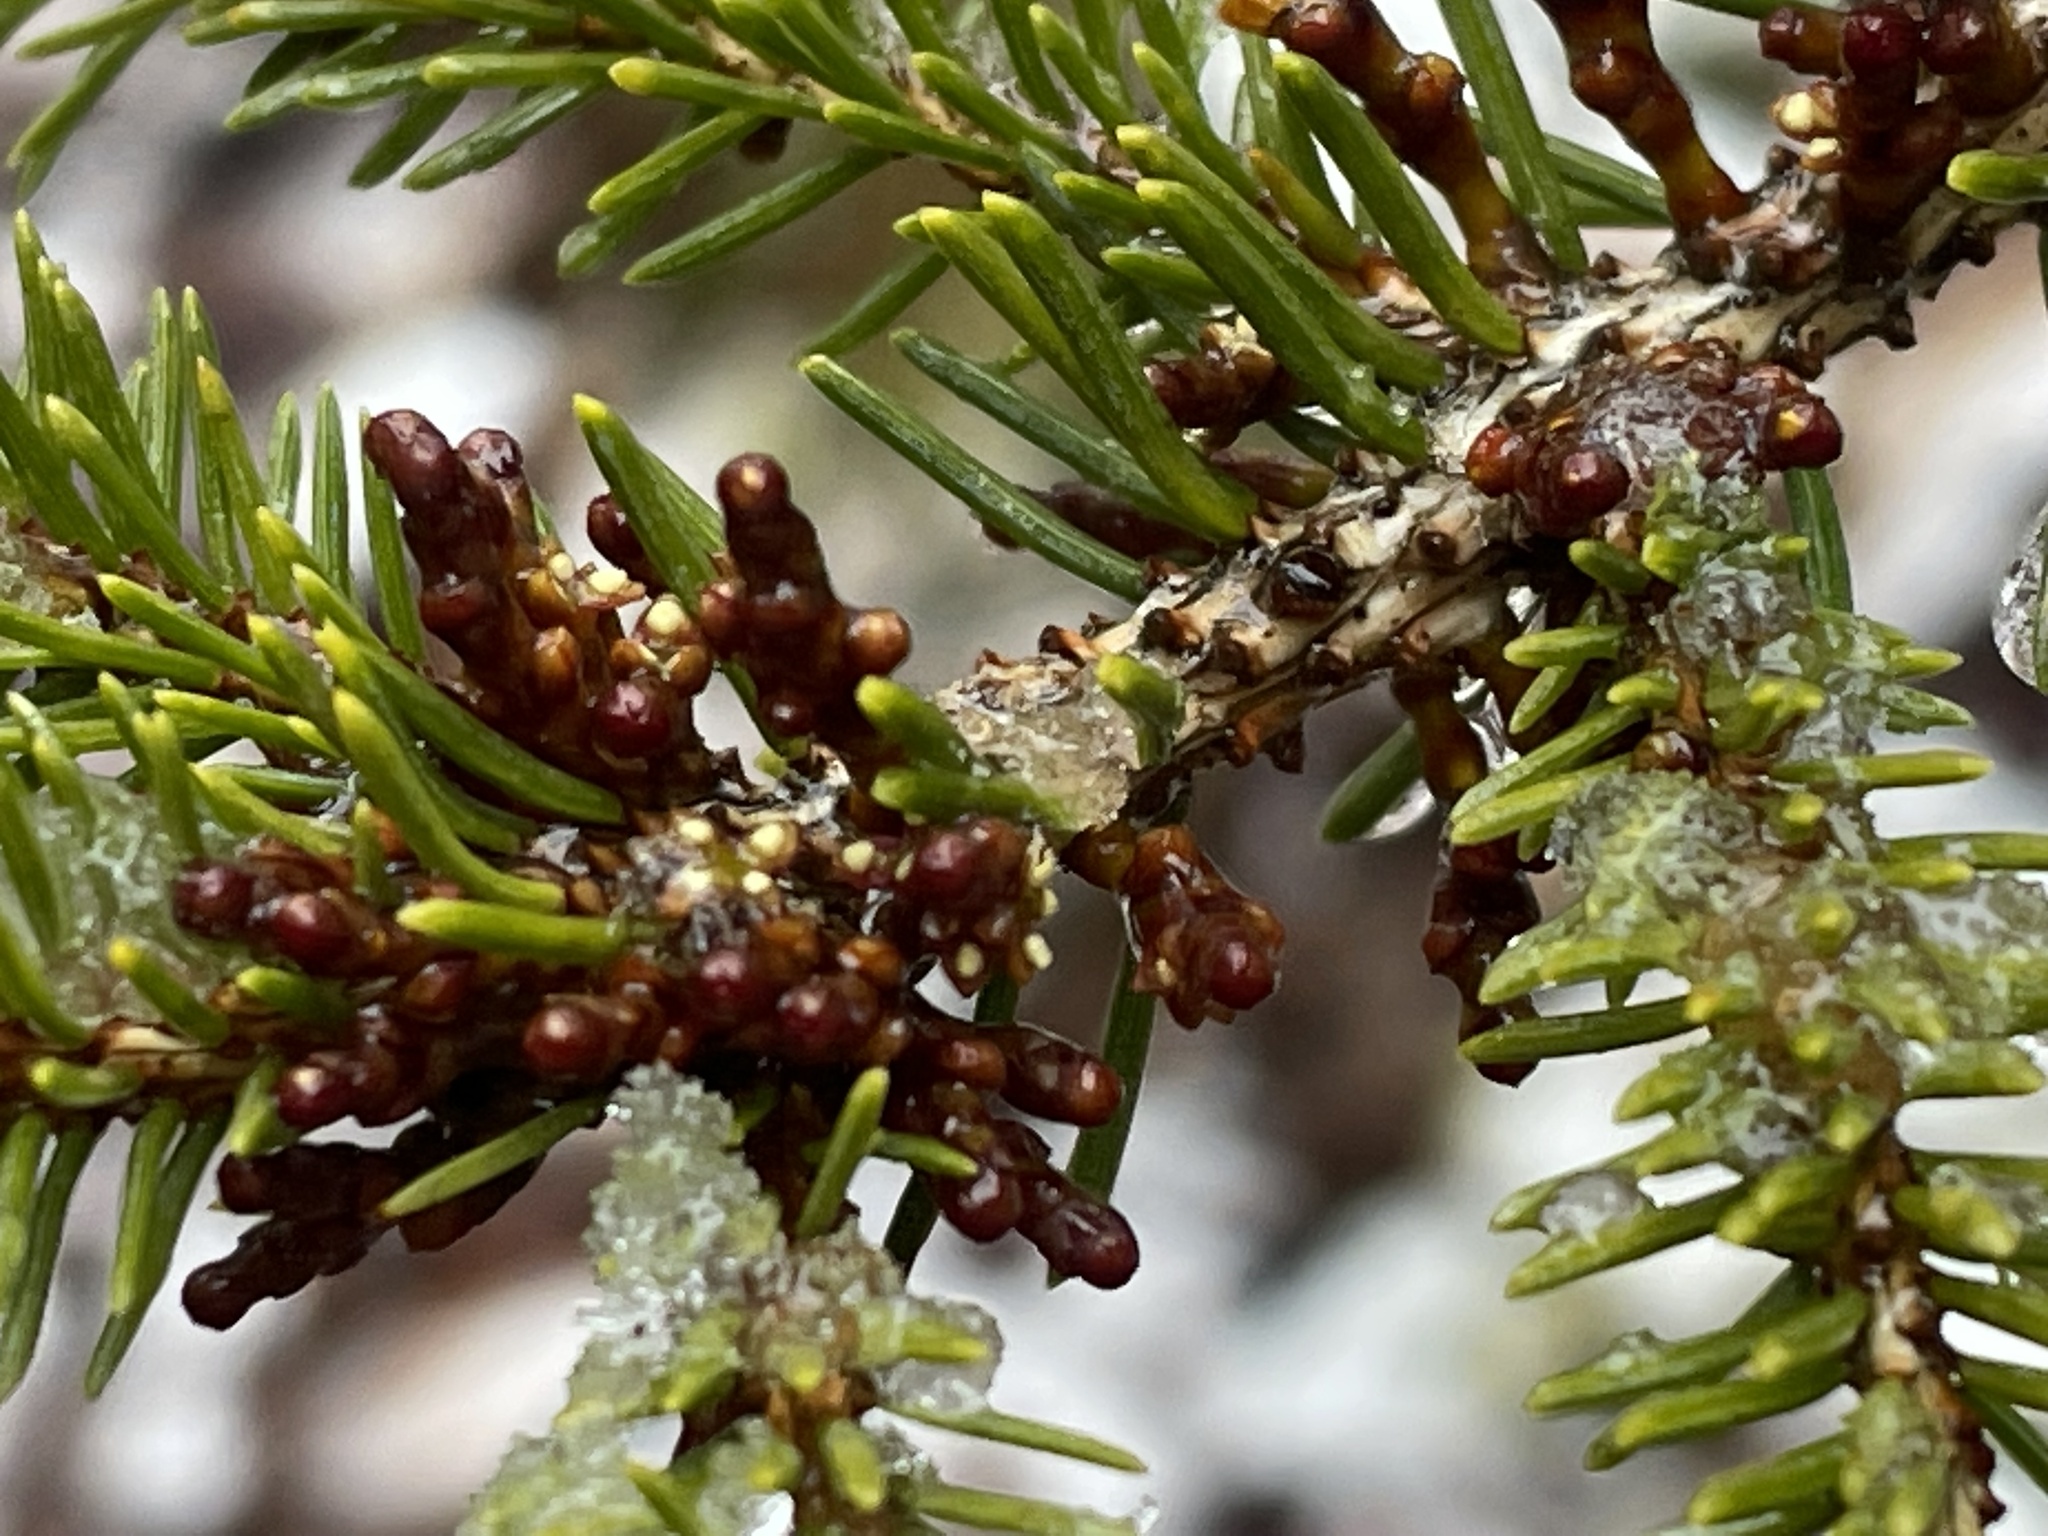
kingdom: Plantae
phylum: Tracheophyta
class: Magnoliopsida
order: Santalales
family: Viscaceae
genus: Arceuthobium
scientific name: Arceuthobium pusillum
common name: Dwarf-mistletoe
